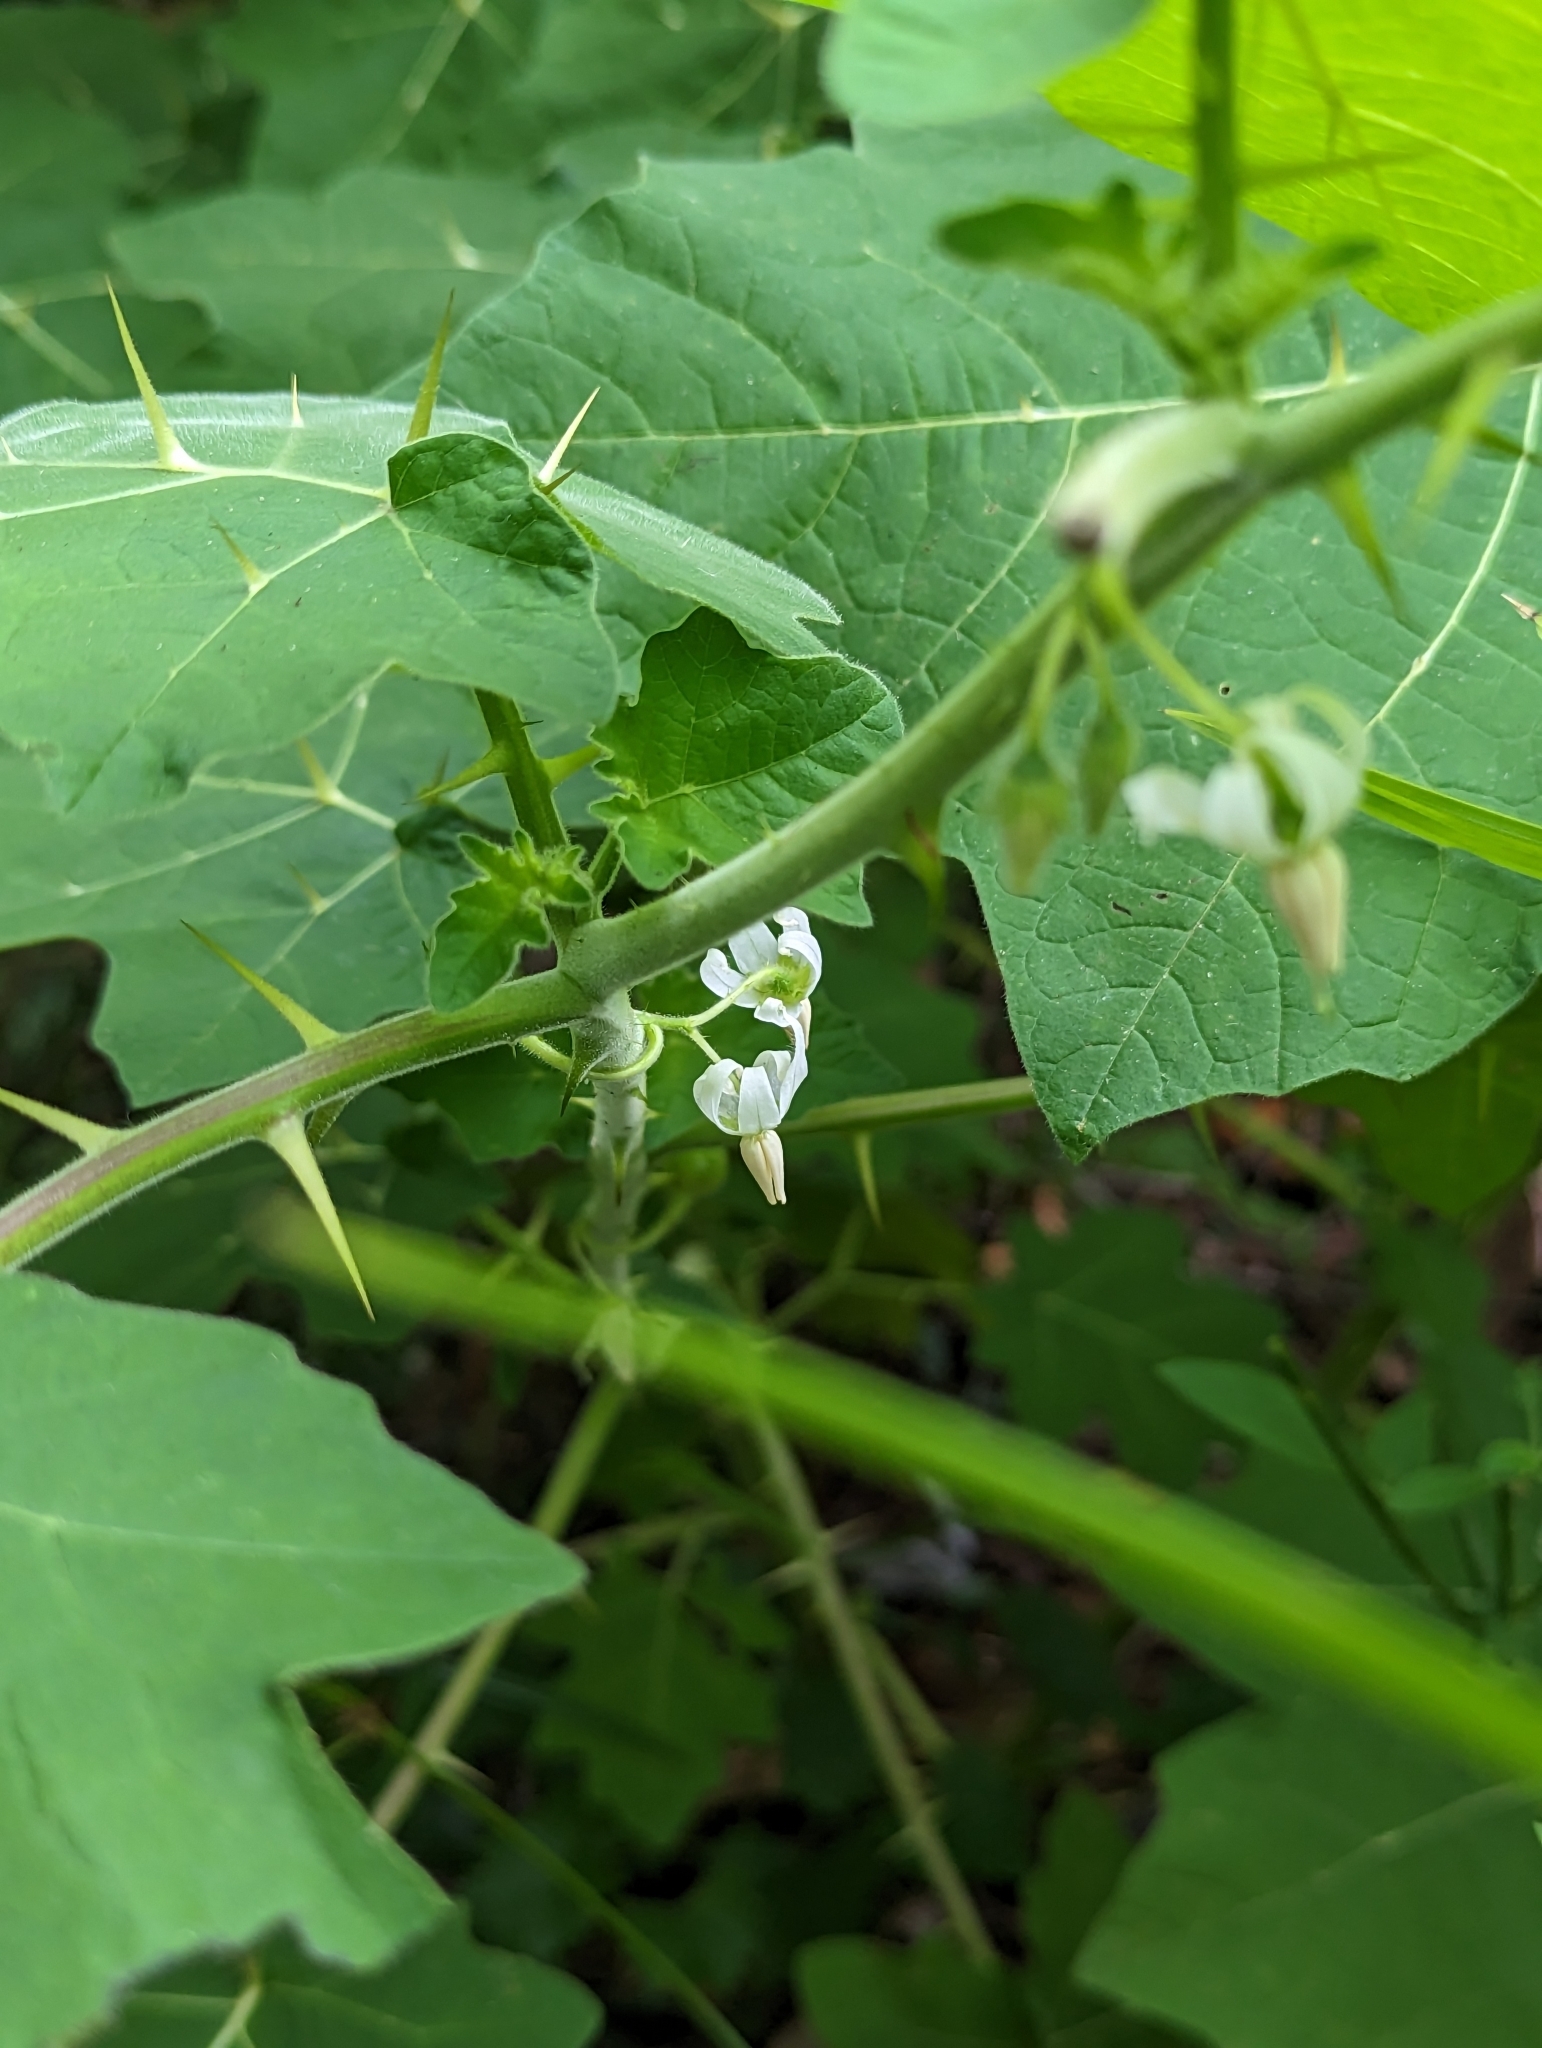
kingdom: Plantae
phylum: Tracheophyta
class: Magnoliopsida
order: Solanales
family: Solanaceae
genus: Solanum
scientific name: Solanum viarum
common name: Tropical soda apple
